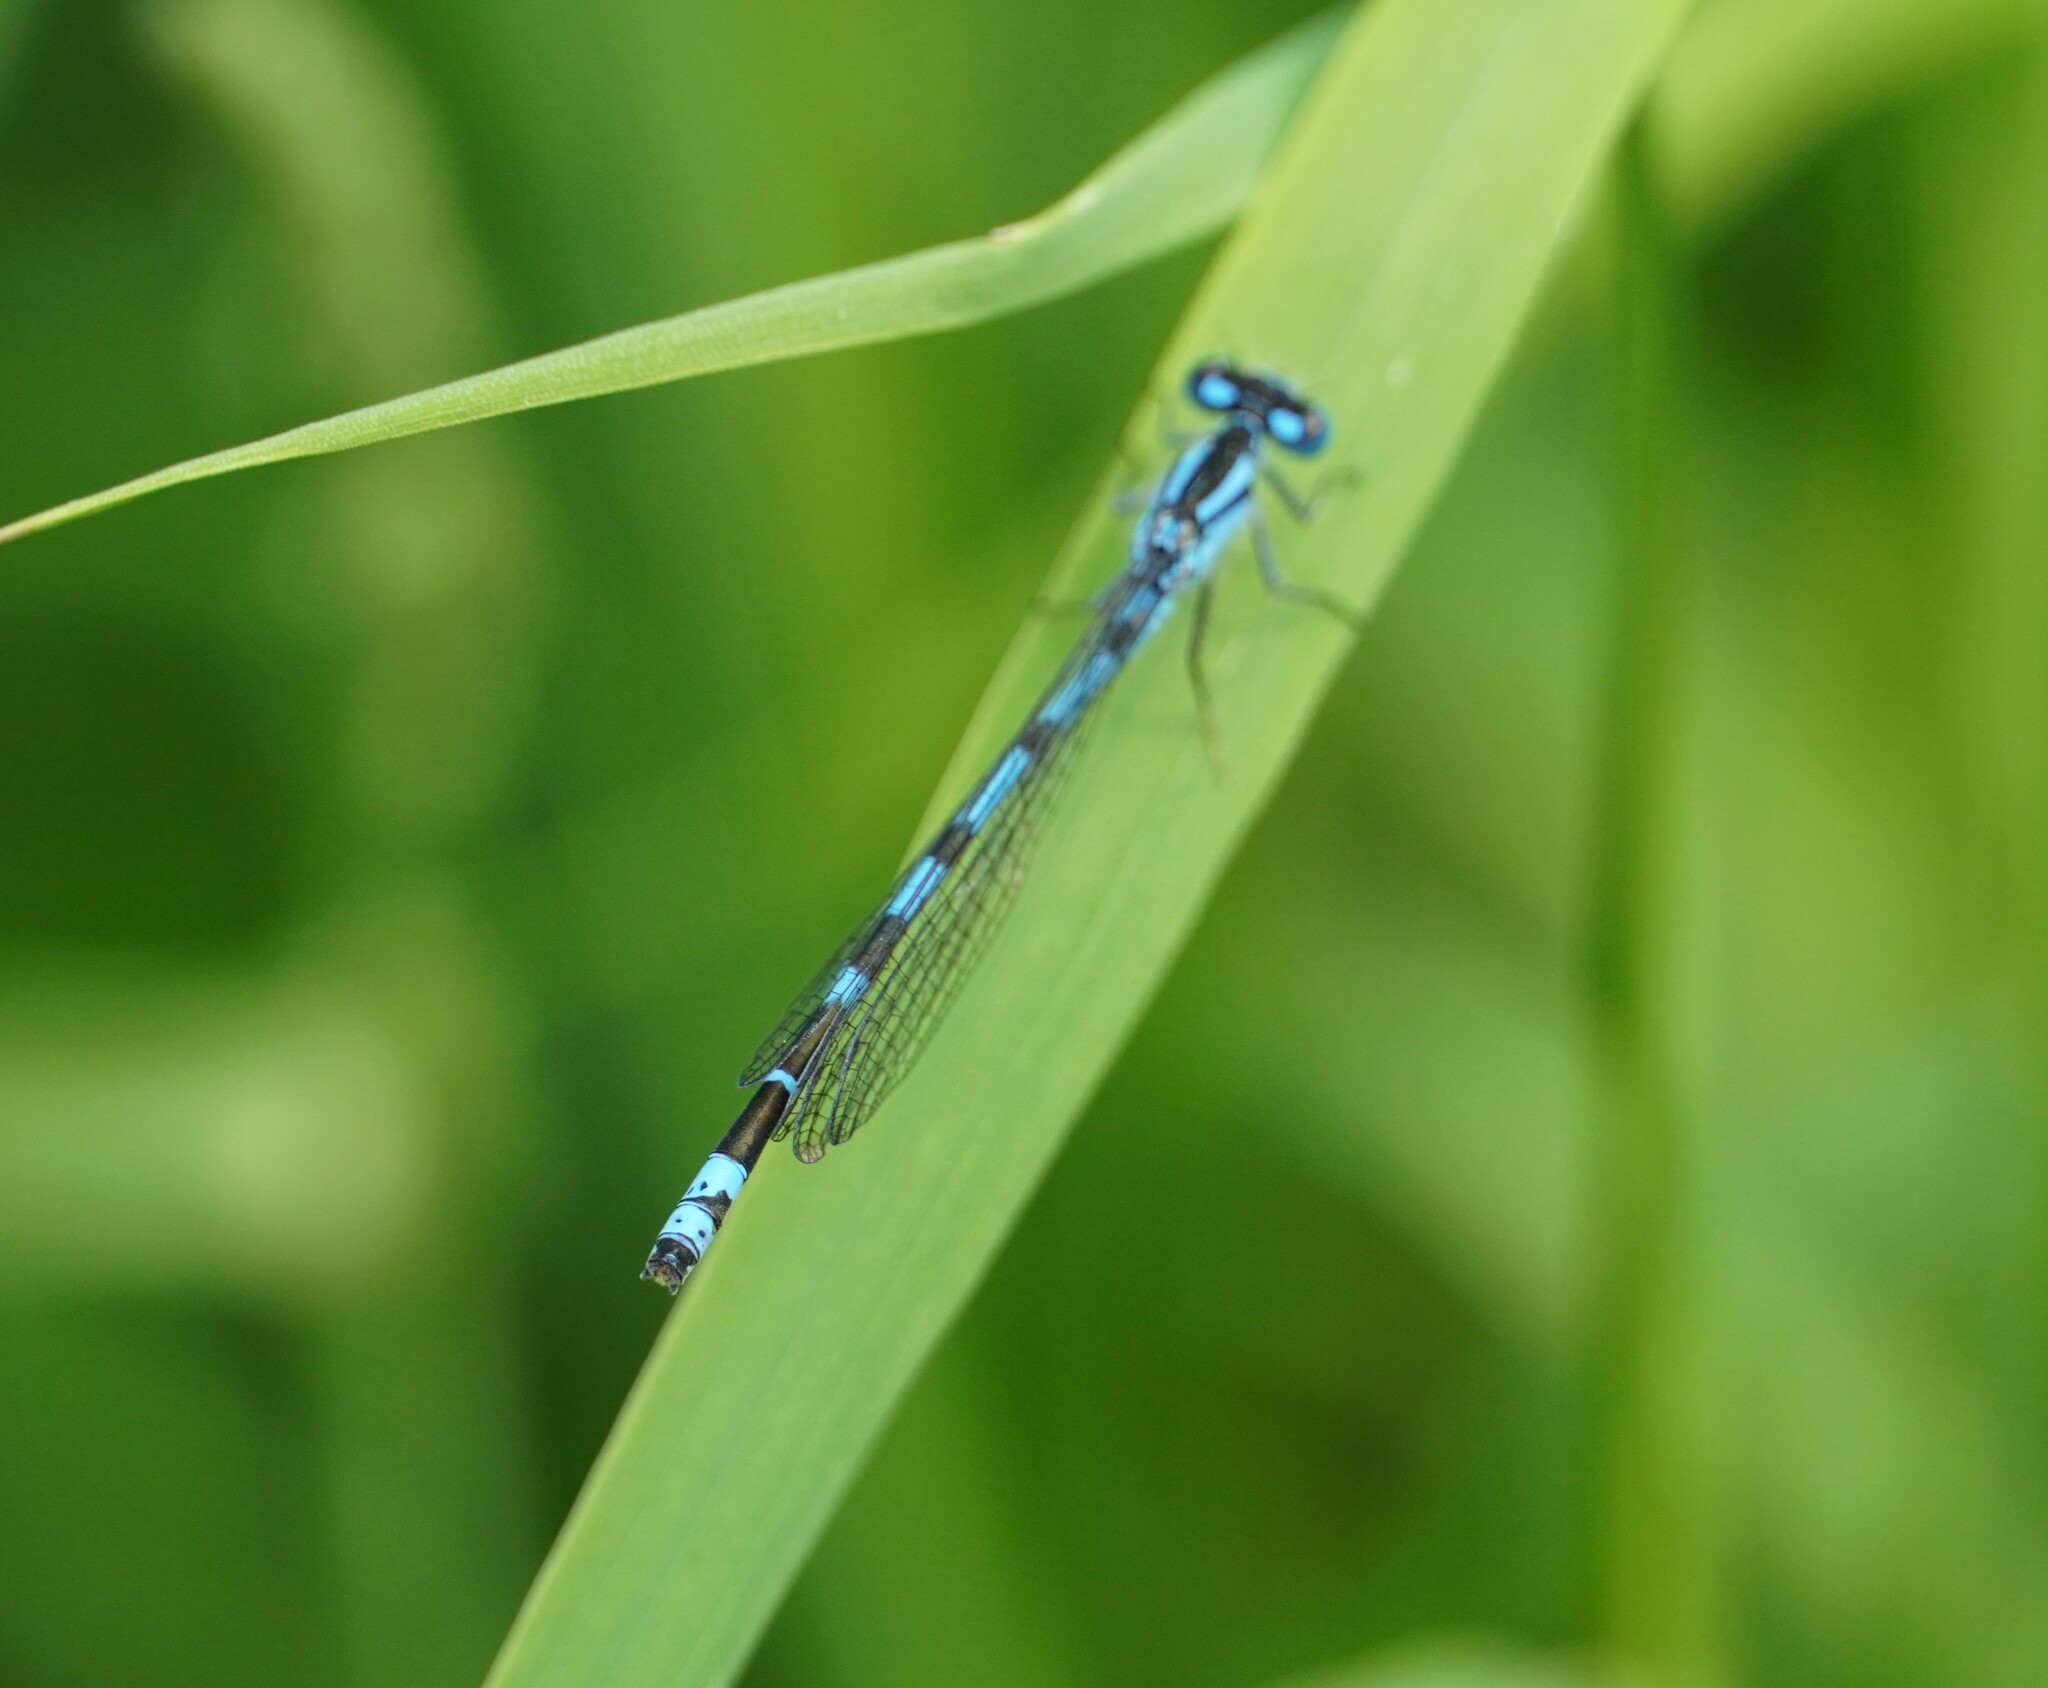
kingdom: Animalia
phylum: Arthropoda
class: Insecta
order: Odonata
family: Coenagrionidae
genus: Enallagma
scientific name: Enallagma cyathigerum
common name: Common blue damselfly
